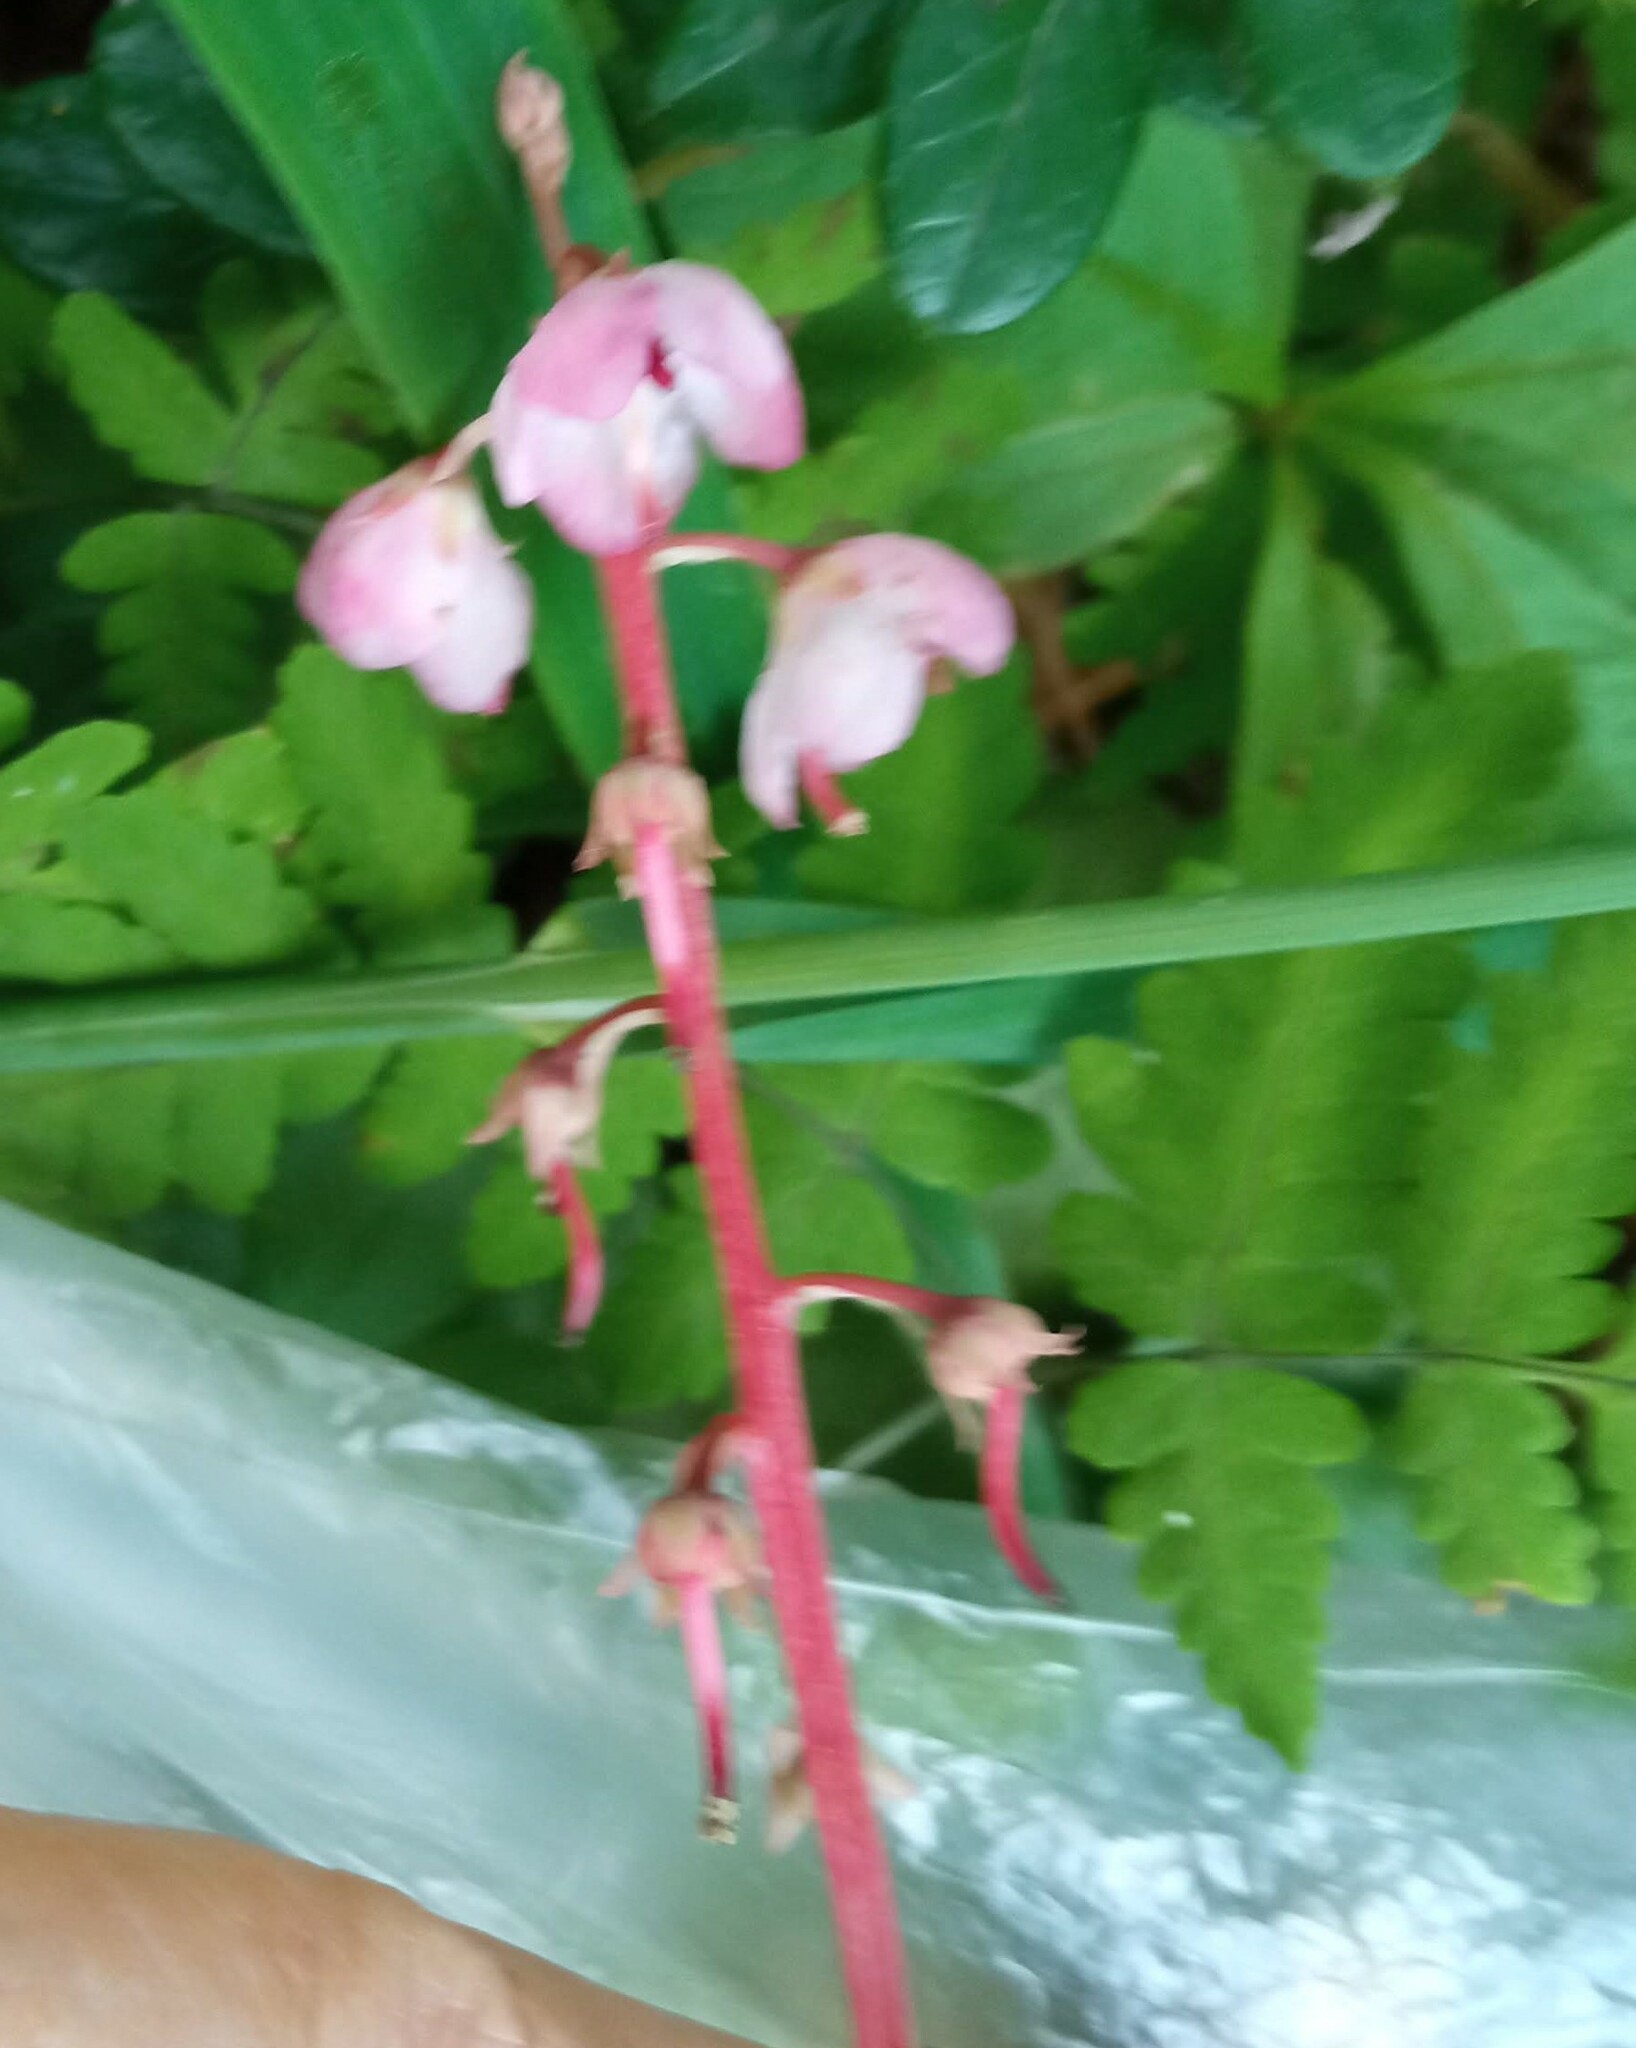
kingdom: Plantae
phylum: Tracheophyta
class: Magnoliopsida
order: Ericales
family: Ericaceae
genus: Pyrola
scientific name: Pyrola asarifolia
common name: Bog wintergreen
